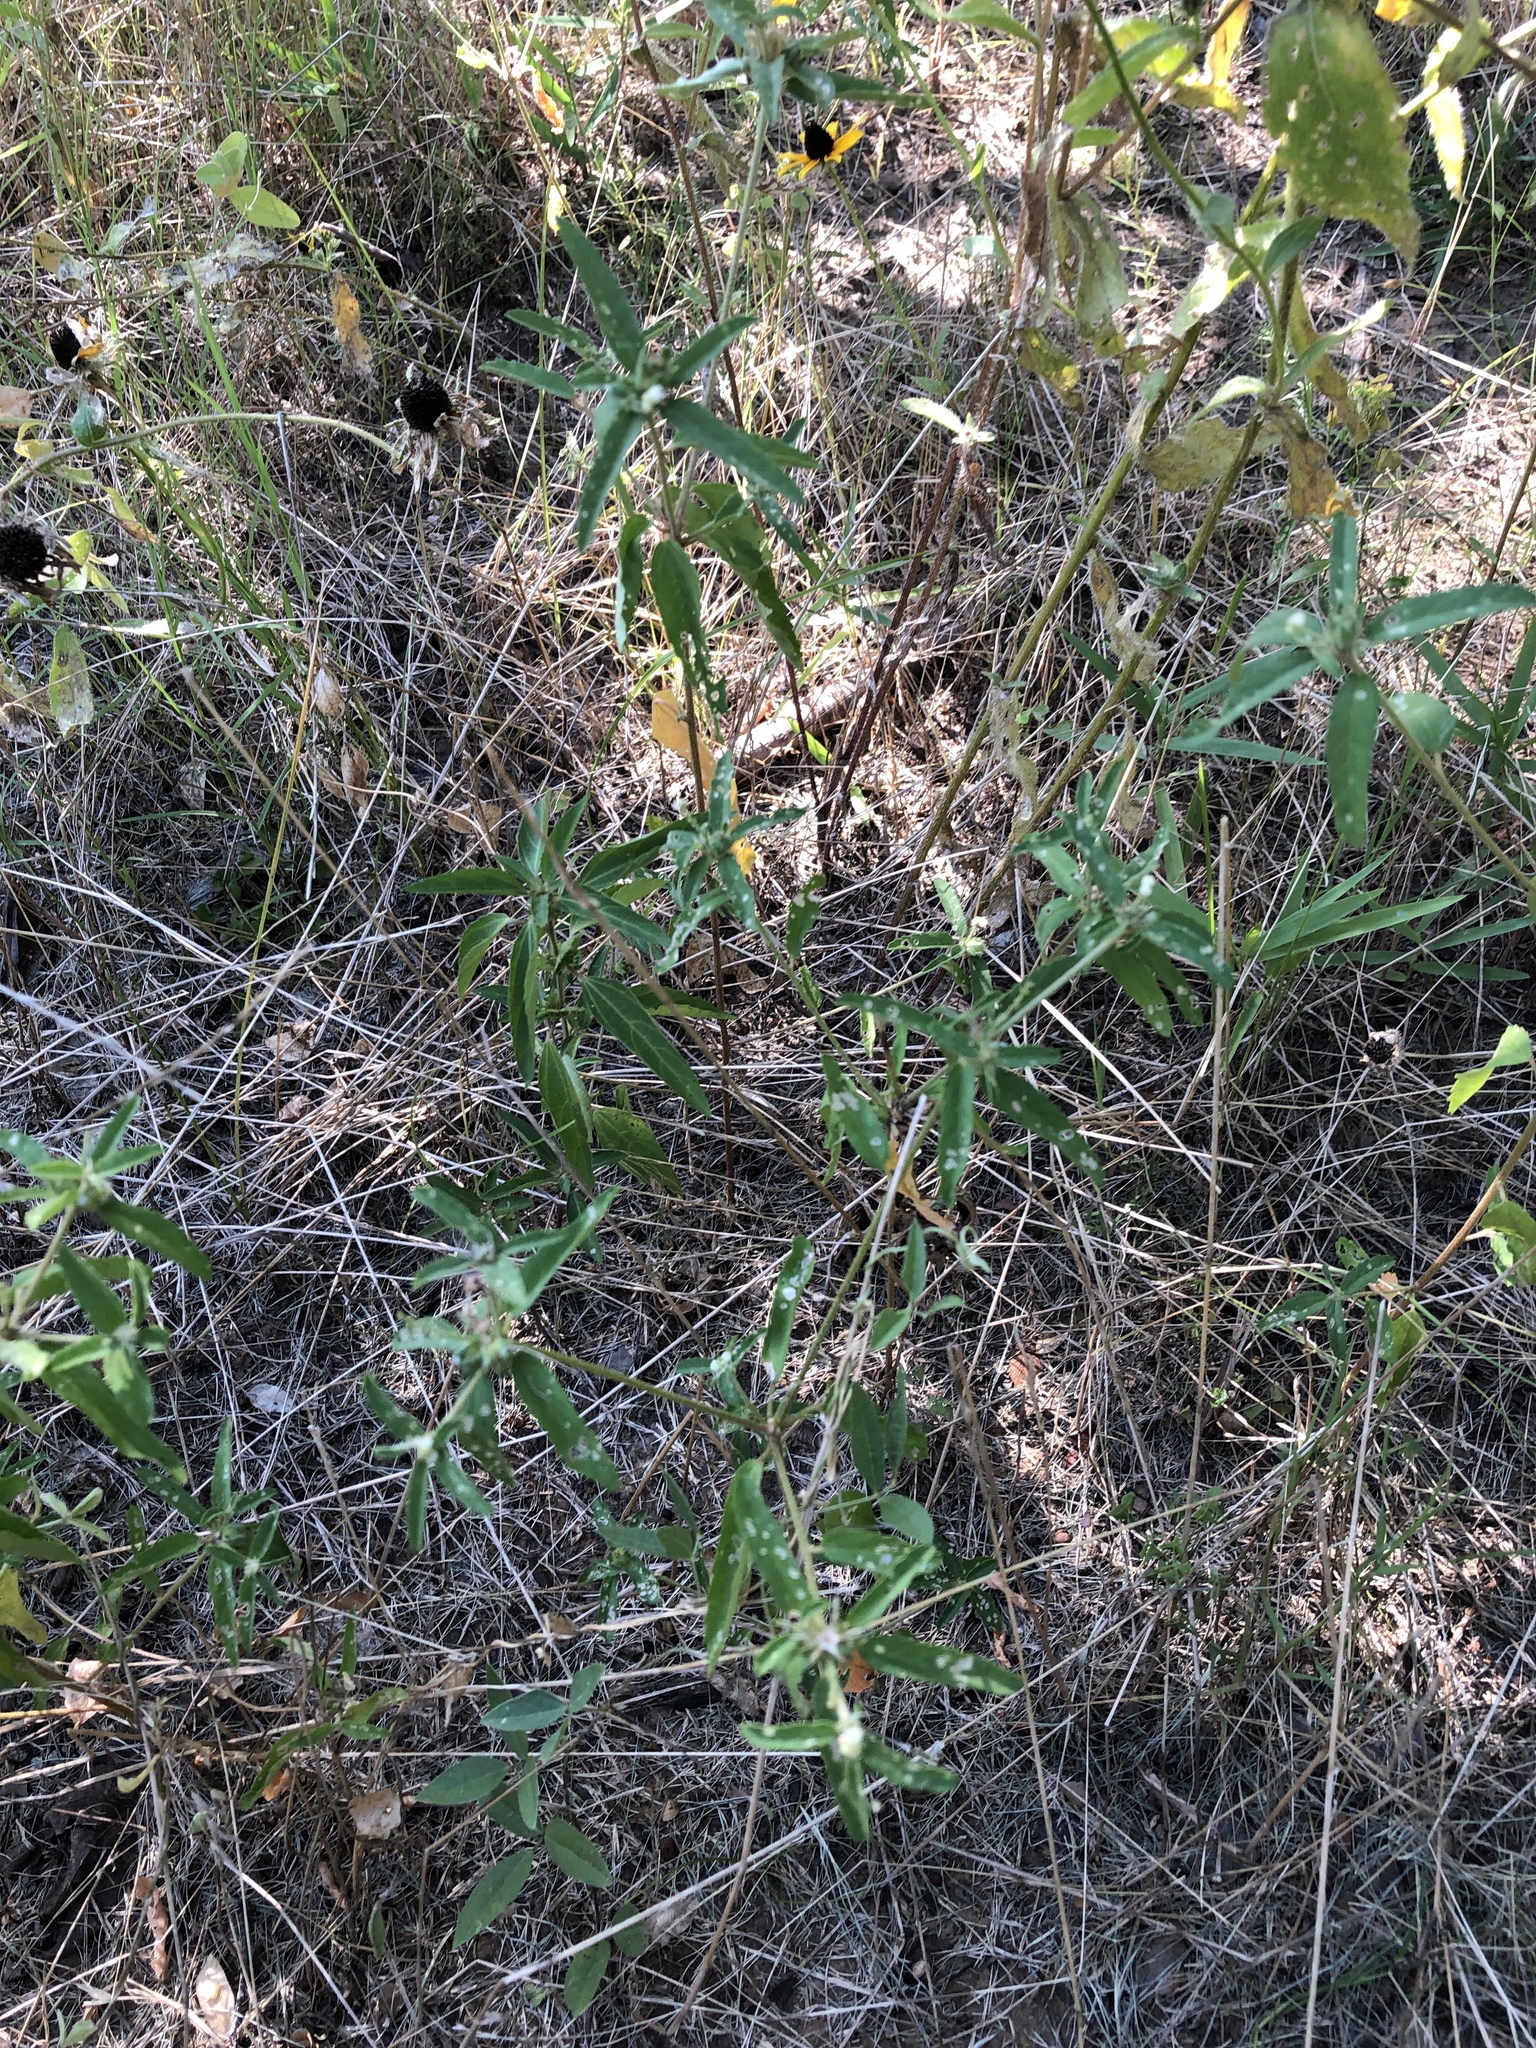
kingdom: Plantae
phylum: Tracheophyta
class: Magnoliopsida
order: Malpighiales
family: Euphorbiaceae
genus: Croton
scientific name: Croton glandulosus
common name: Tropic croton
